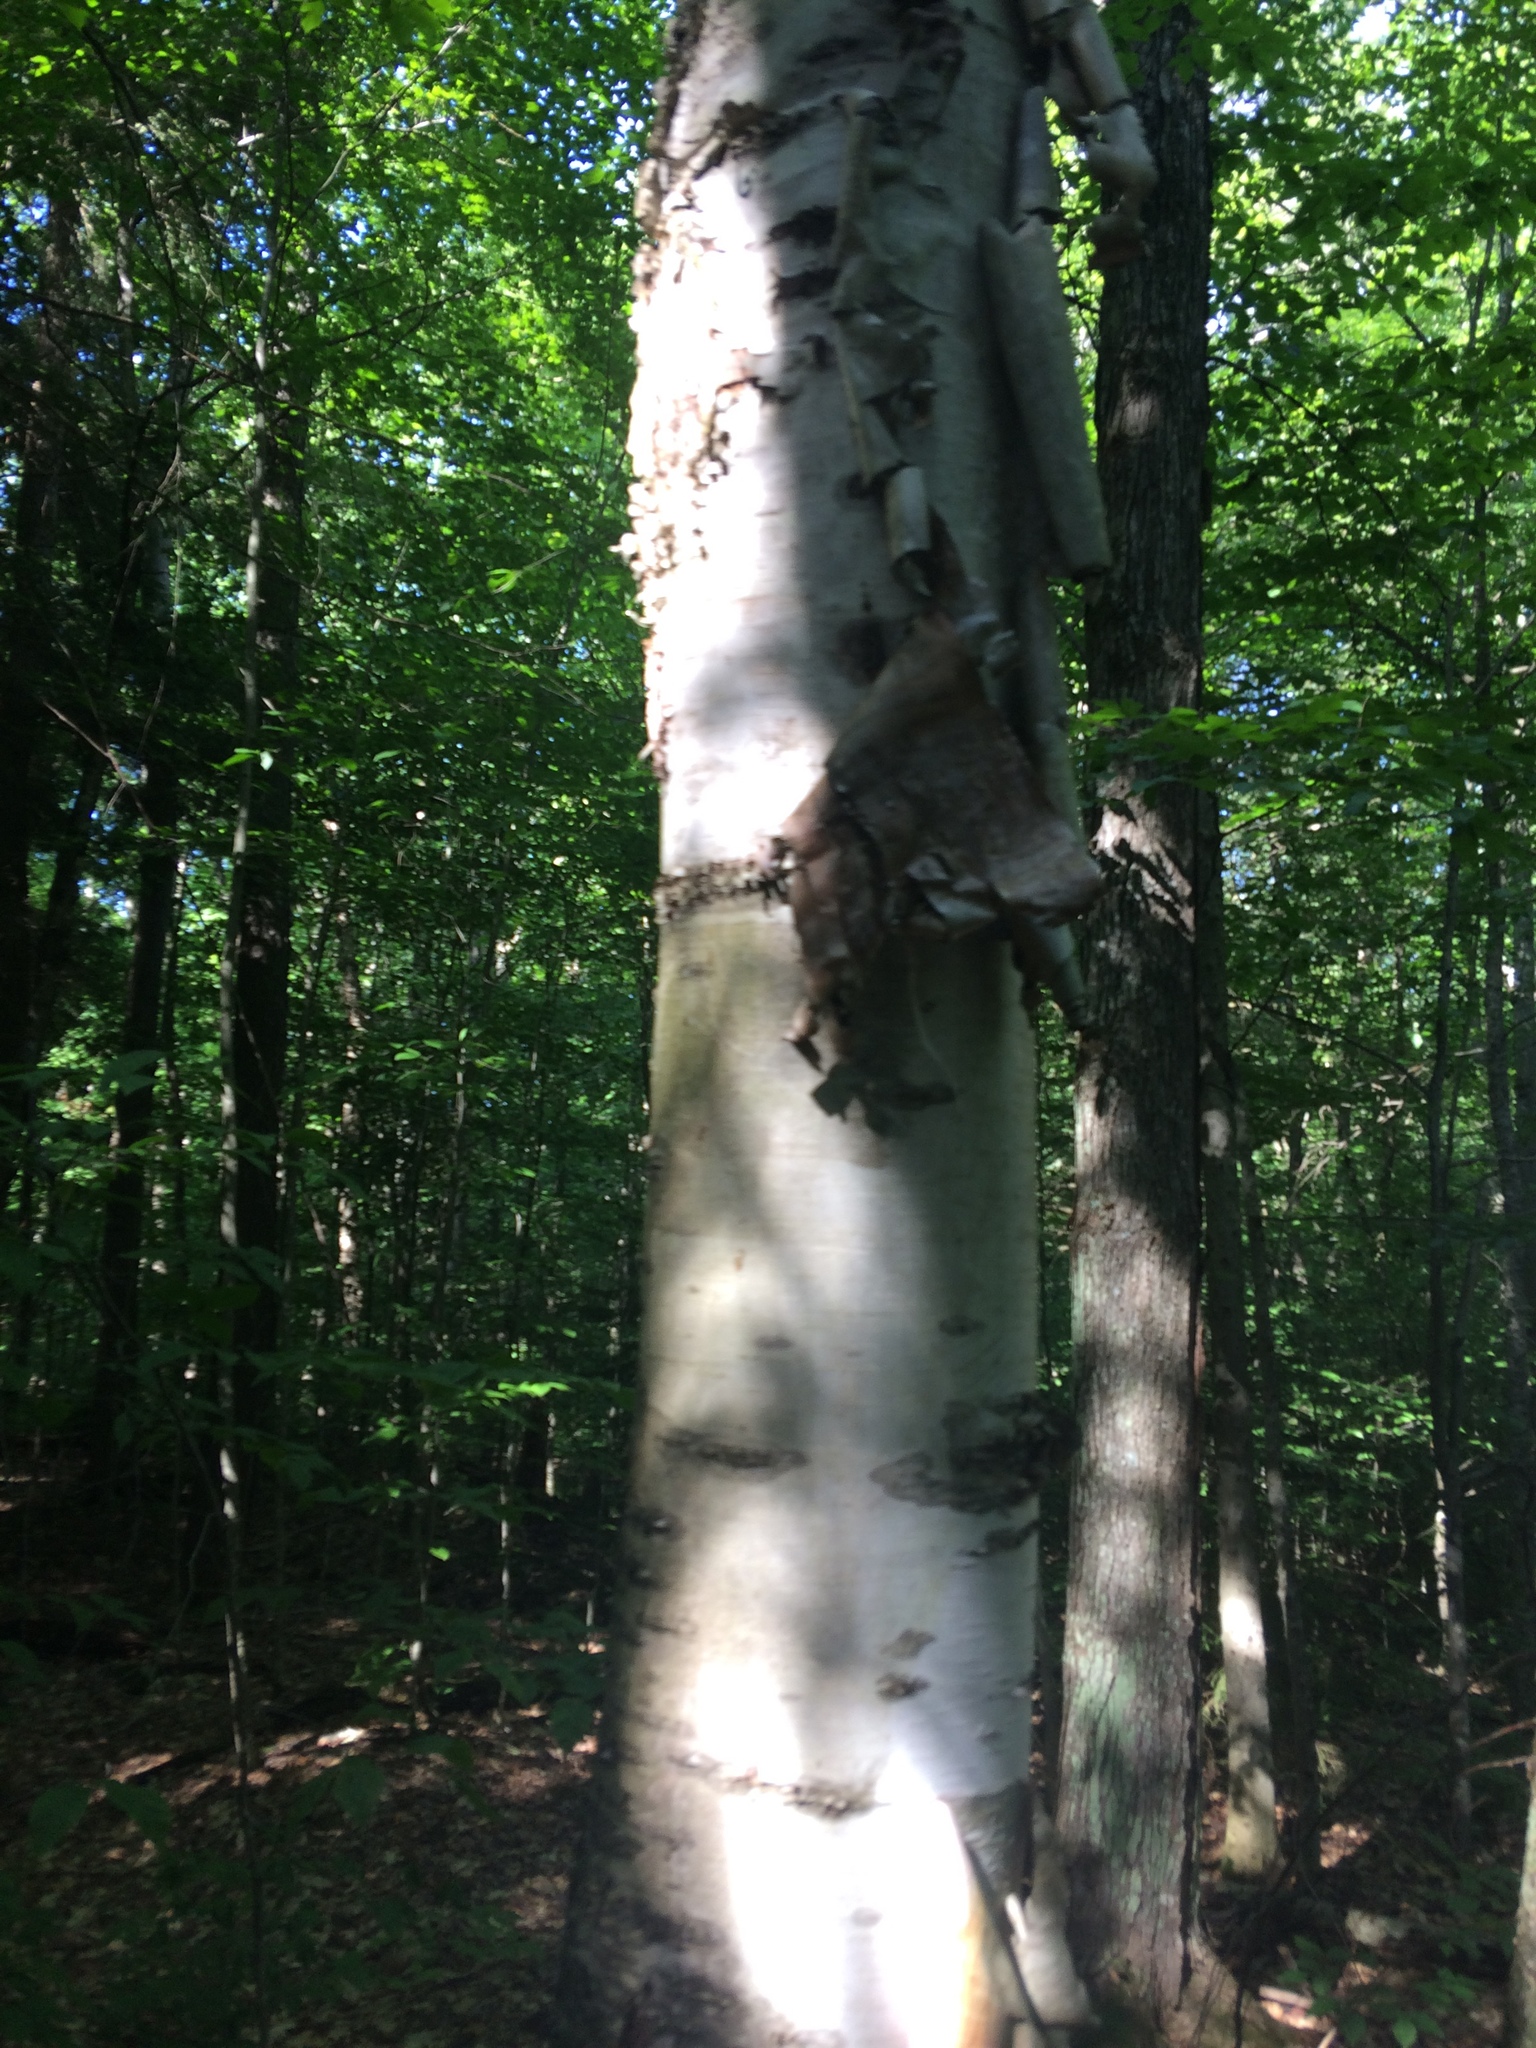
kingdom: Plantae
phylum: Tracheophyta
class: Magnoliopsida
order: Fagales
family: Betulaceae
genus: Betula
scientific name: Betula papyrifera
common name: Paper birch
